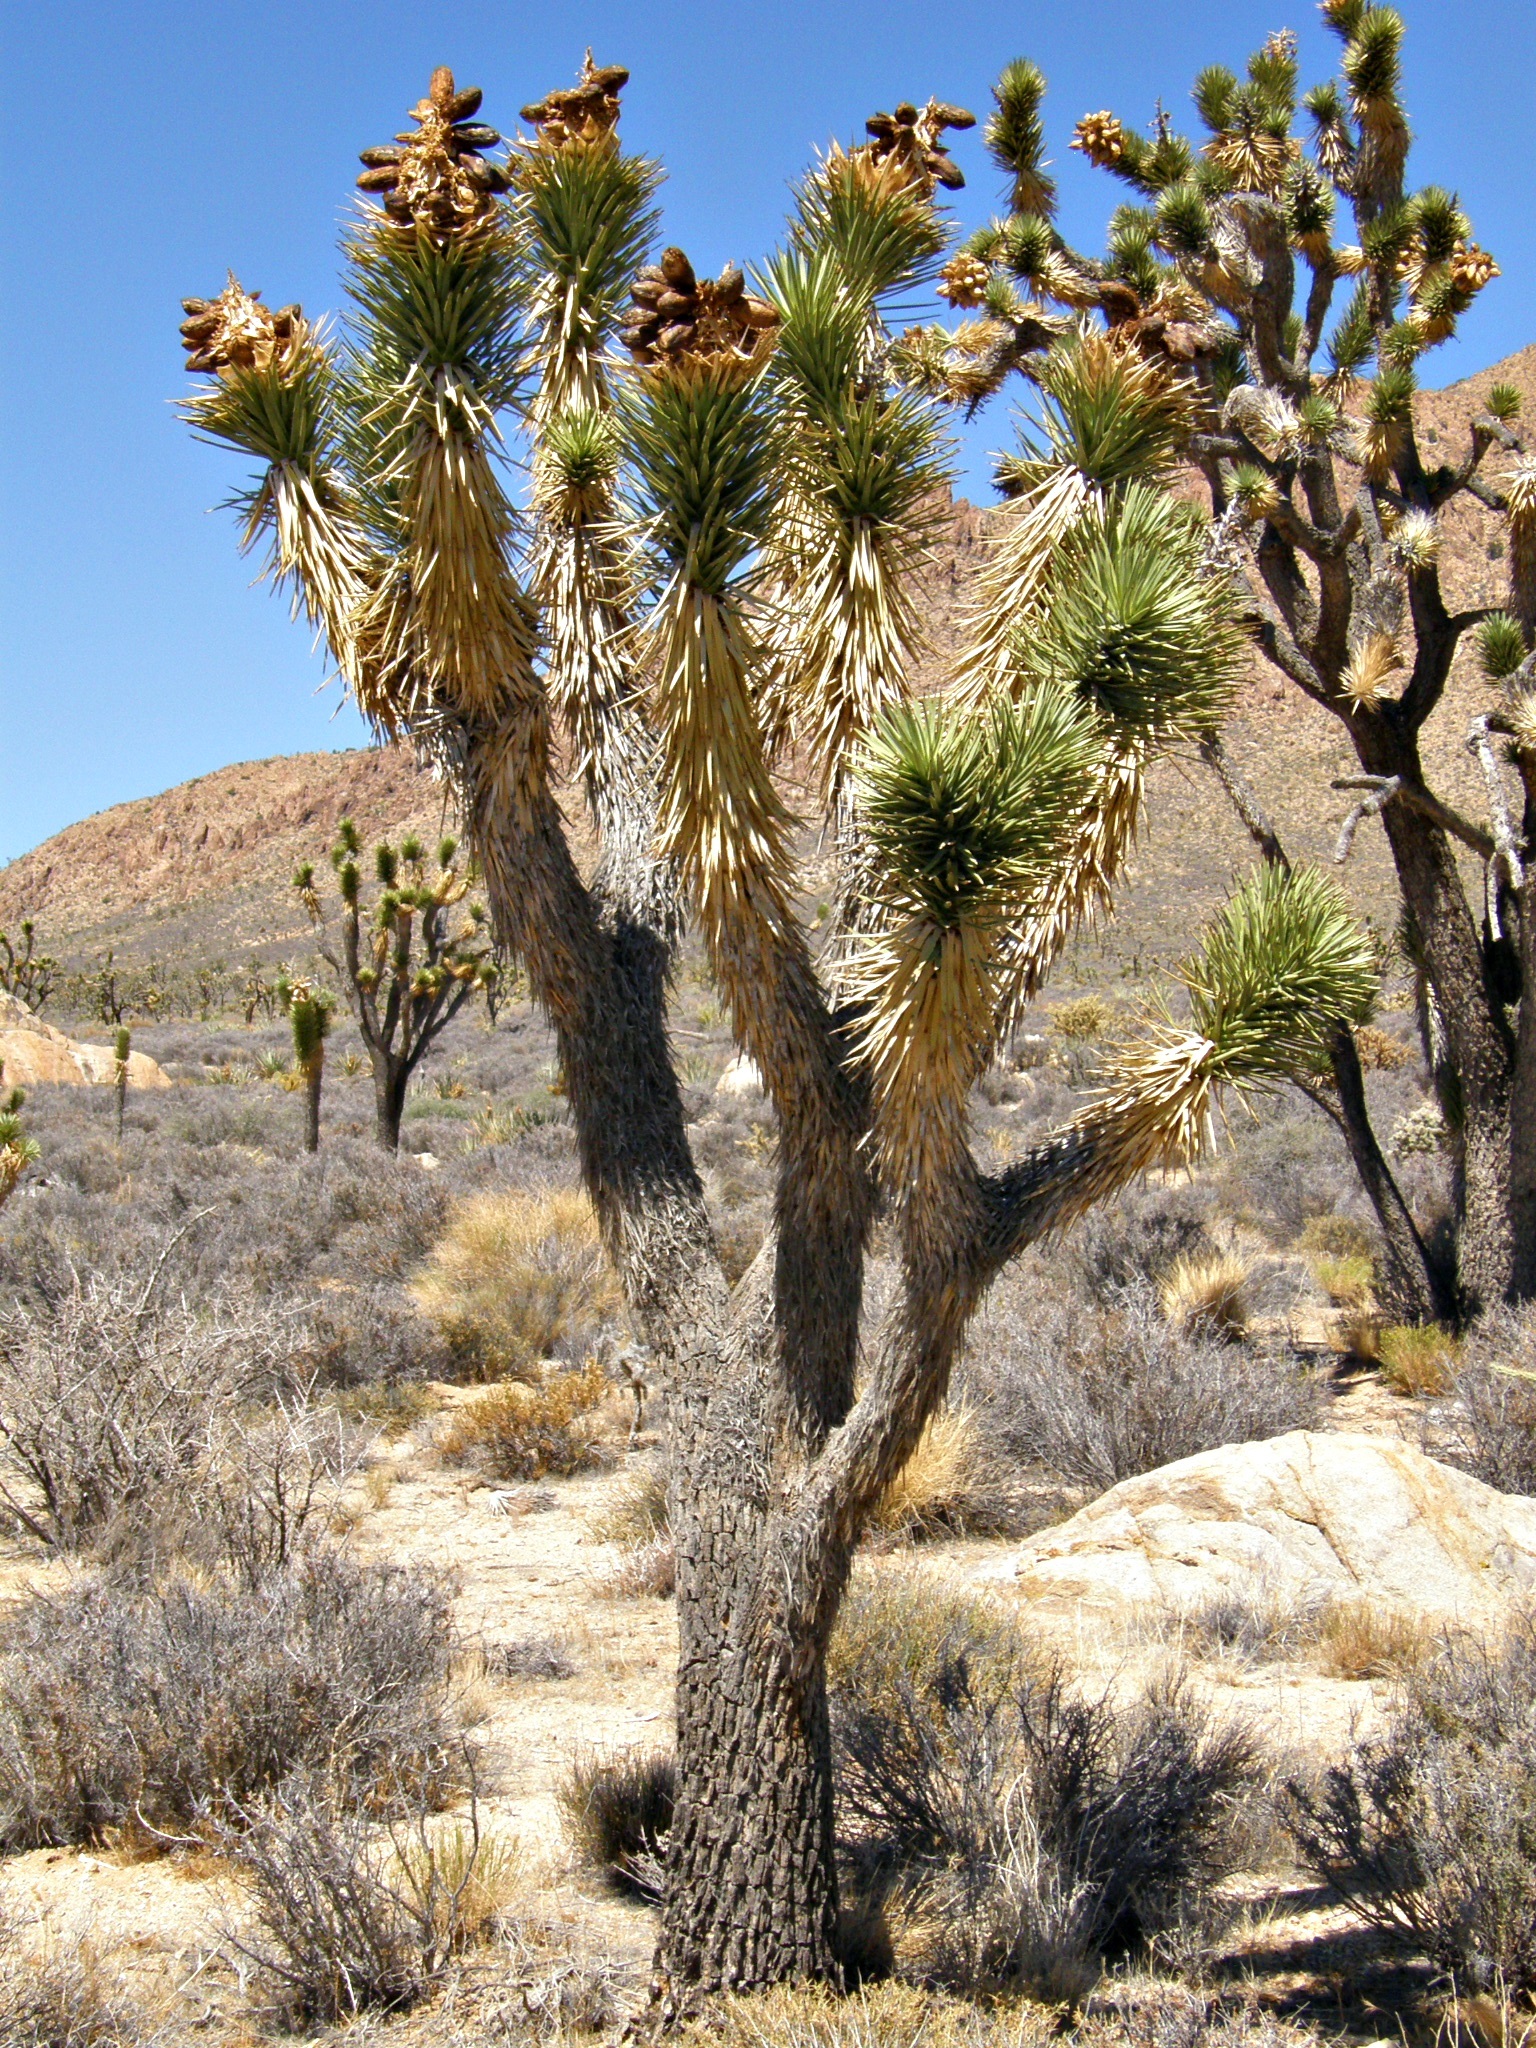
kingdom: Plantae
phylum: Tracheophyta
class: Liliopsida
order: Asparagales
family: Asparagaceae
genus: Yucca
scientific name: Yucca brevifolia
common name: Joshua tree
